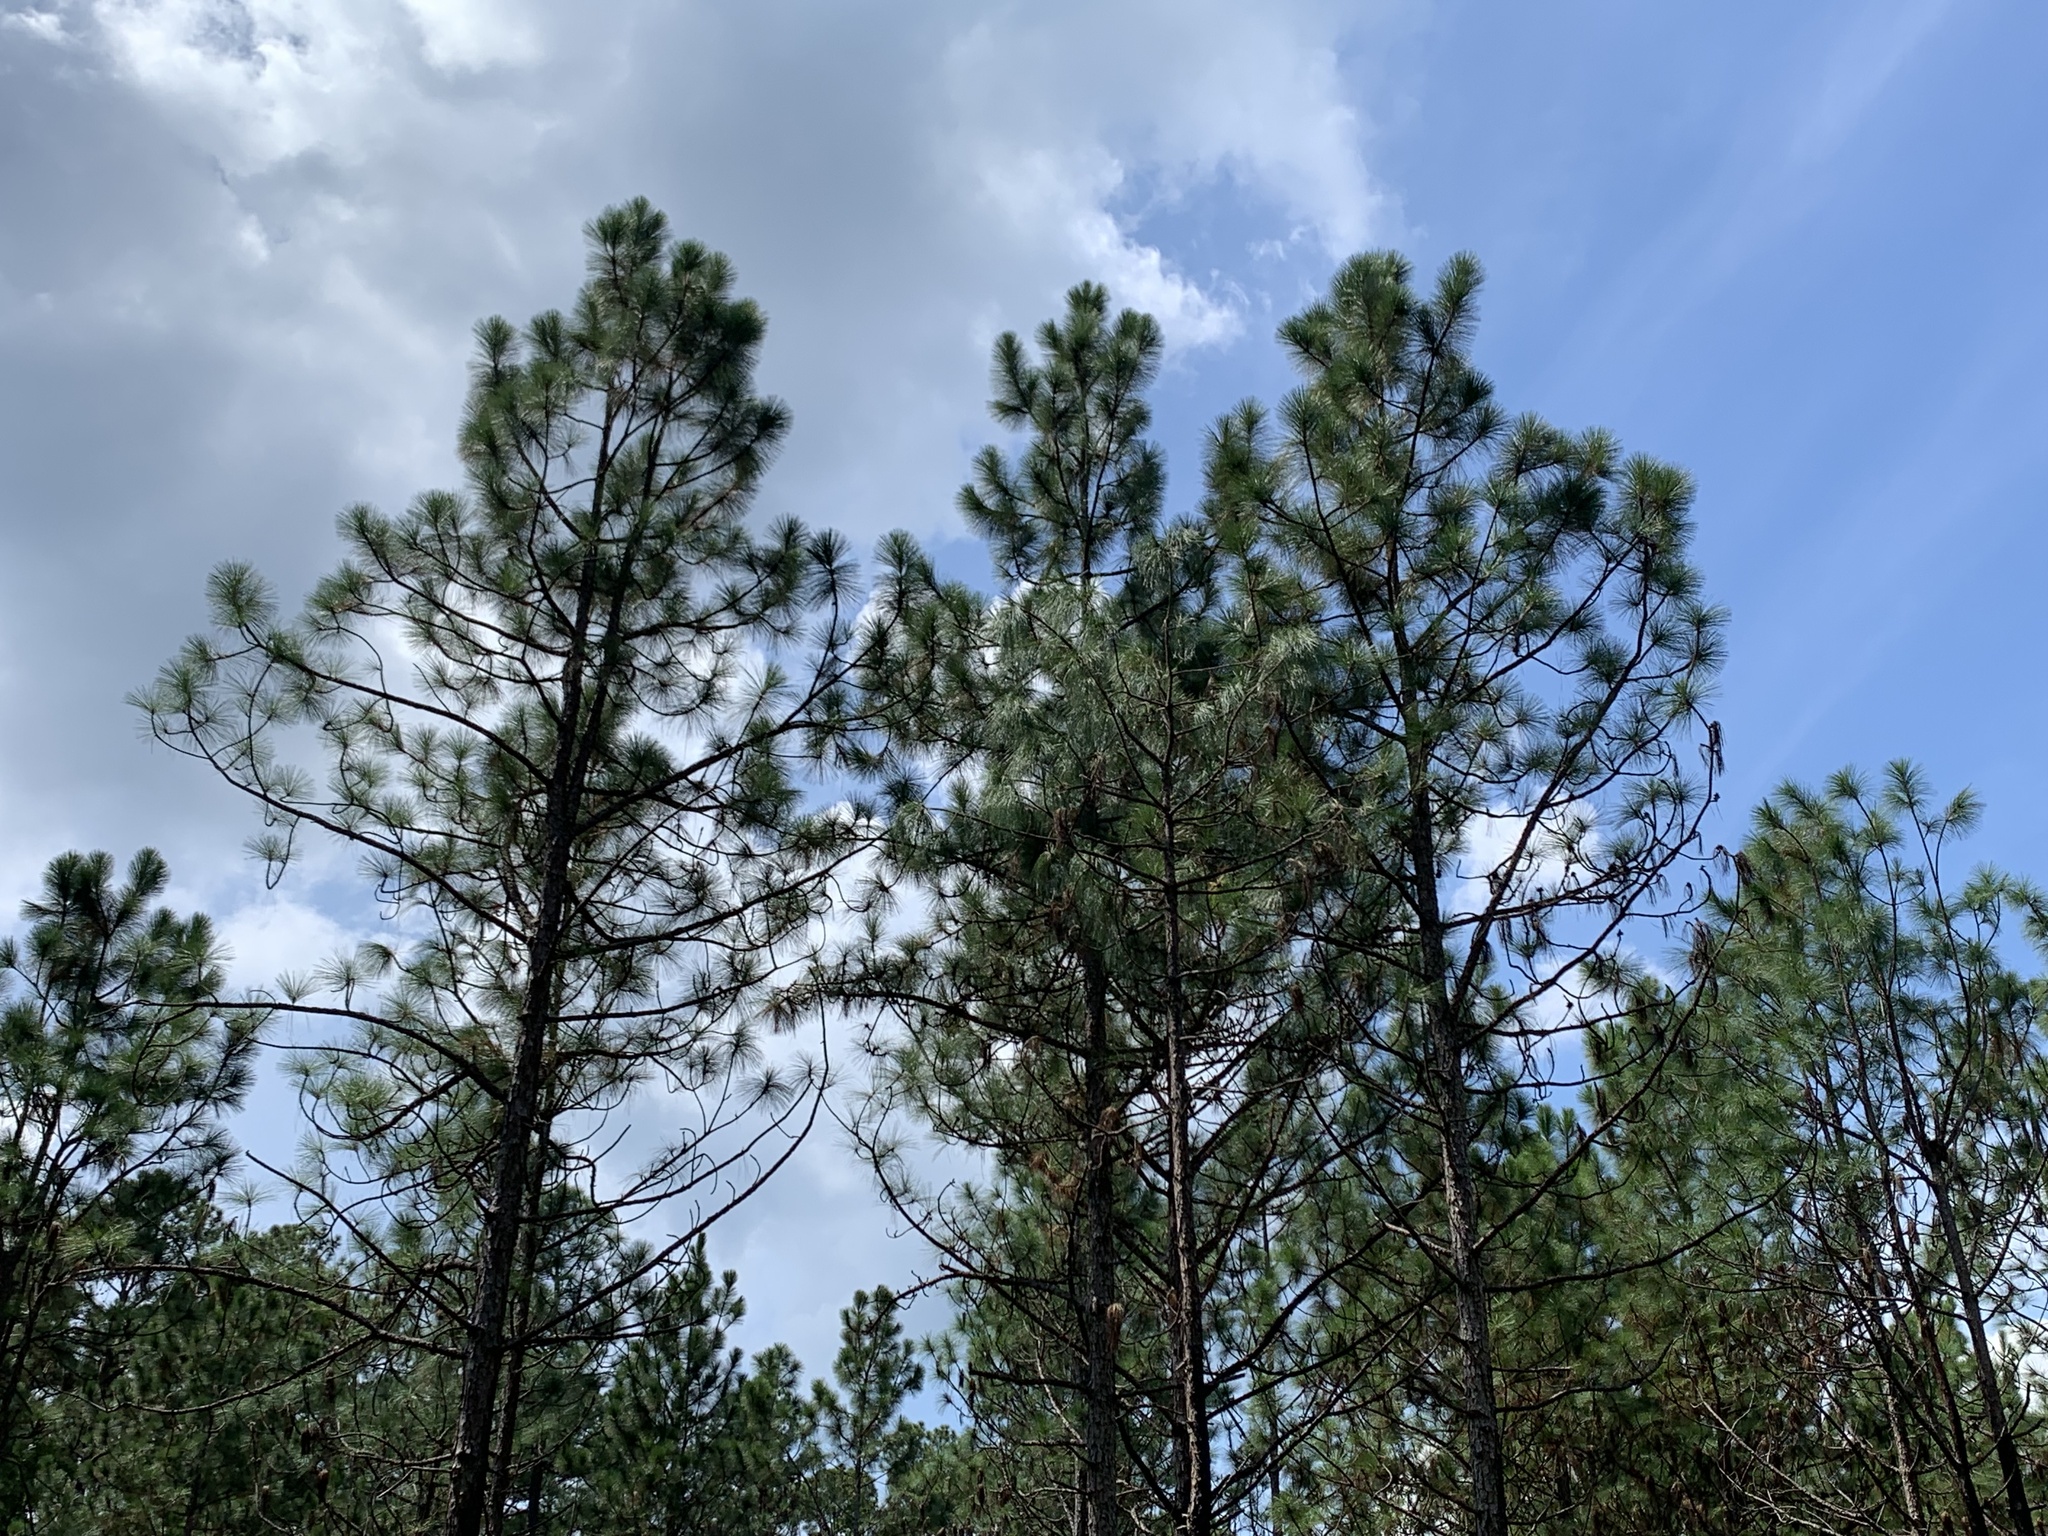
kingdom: Plantae
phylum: Tracheophyta
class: Pinopsida
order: Pinales
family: Pinaceae
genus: Pinus
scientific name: Pinus palustris
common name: Longleaf pine
